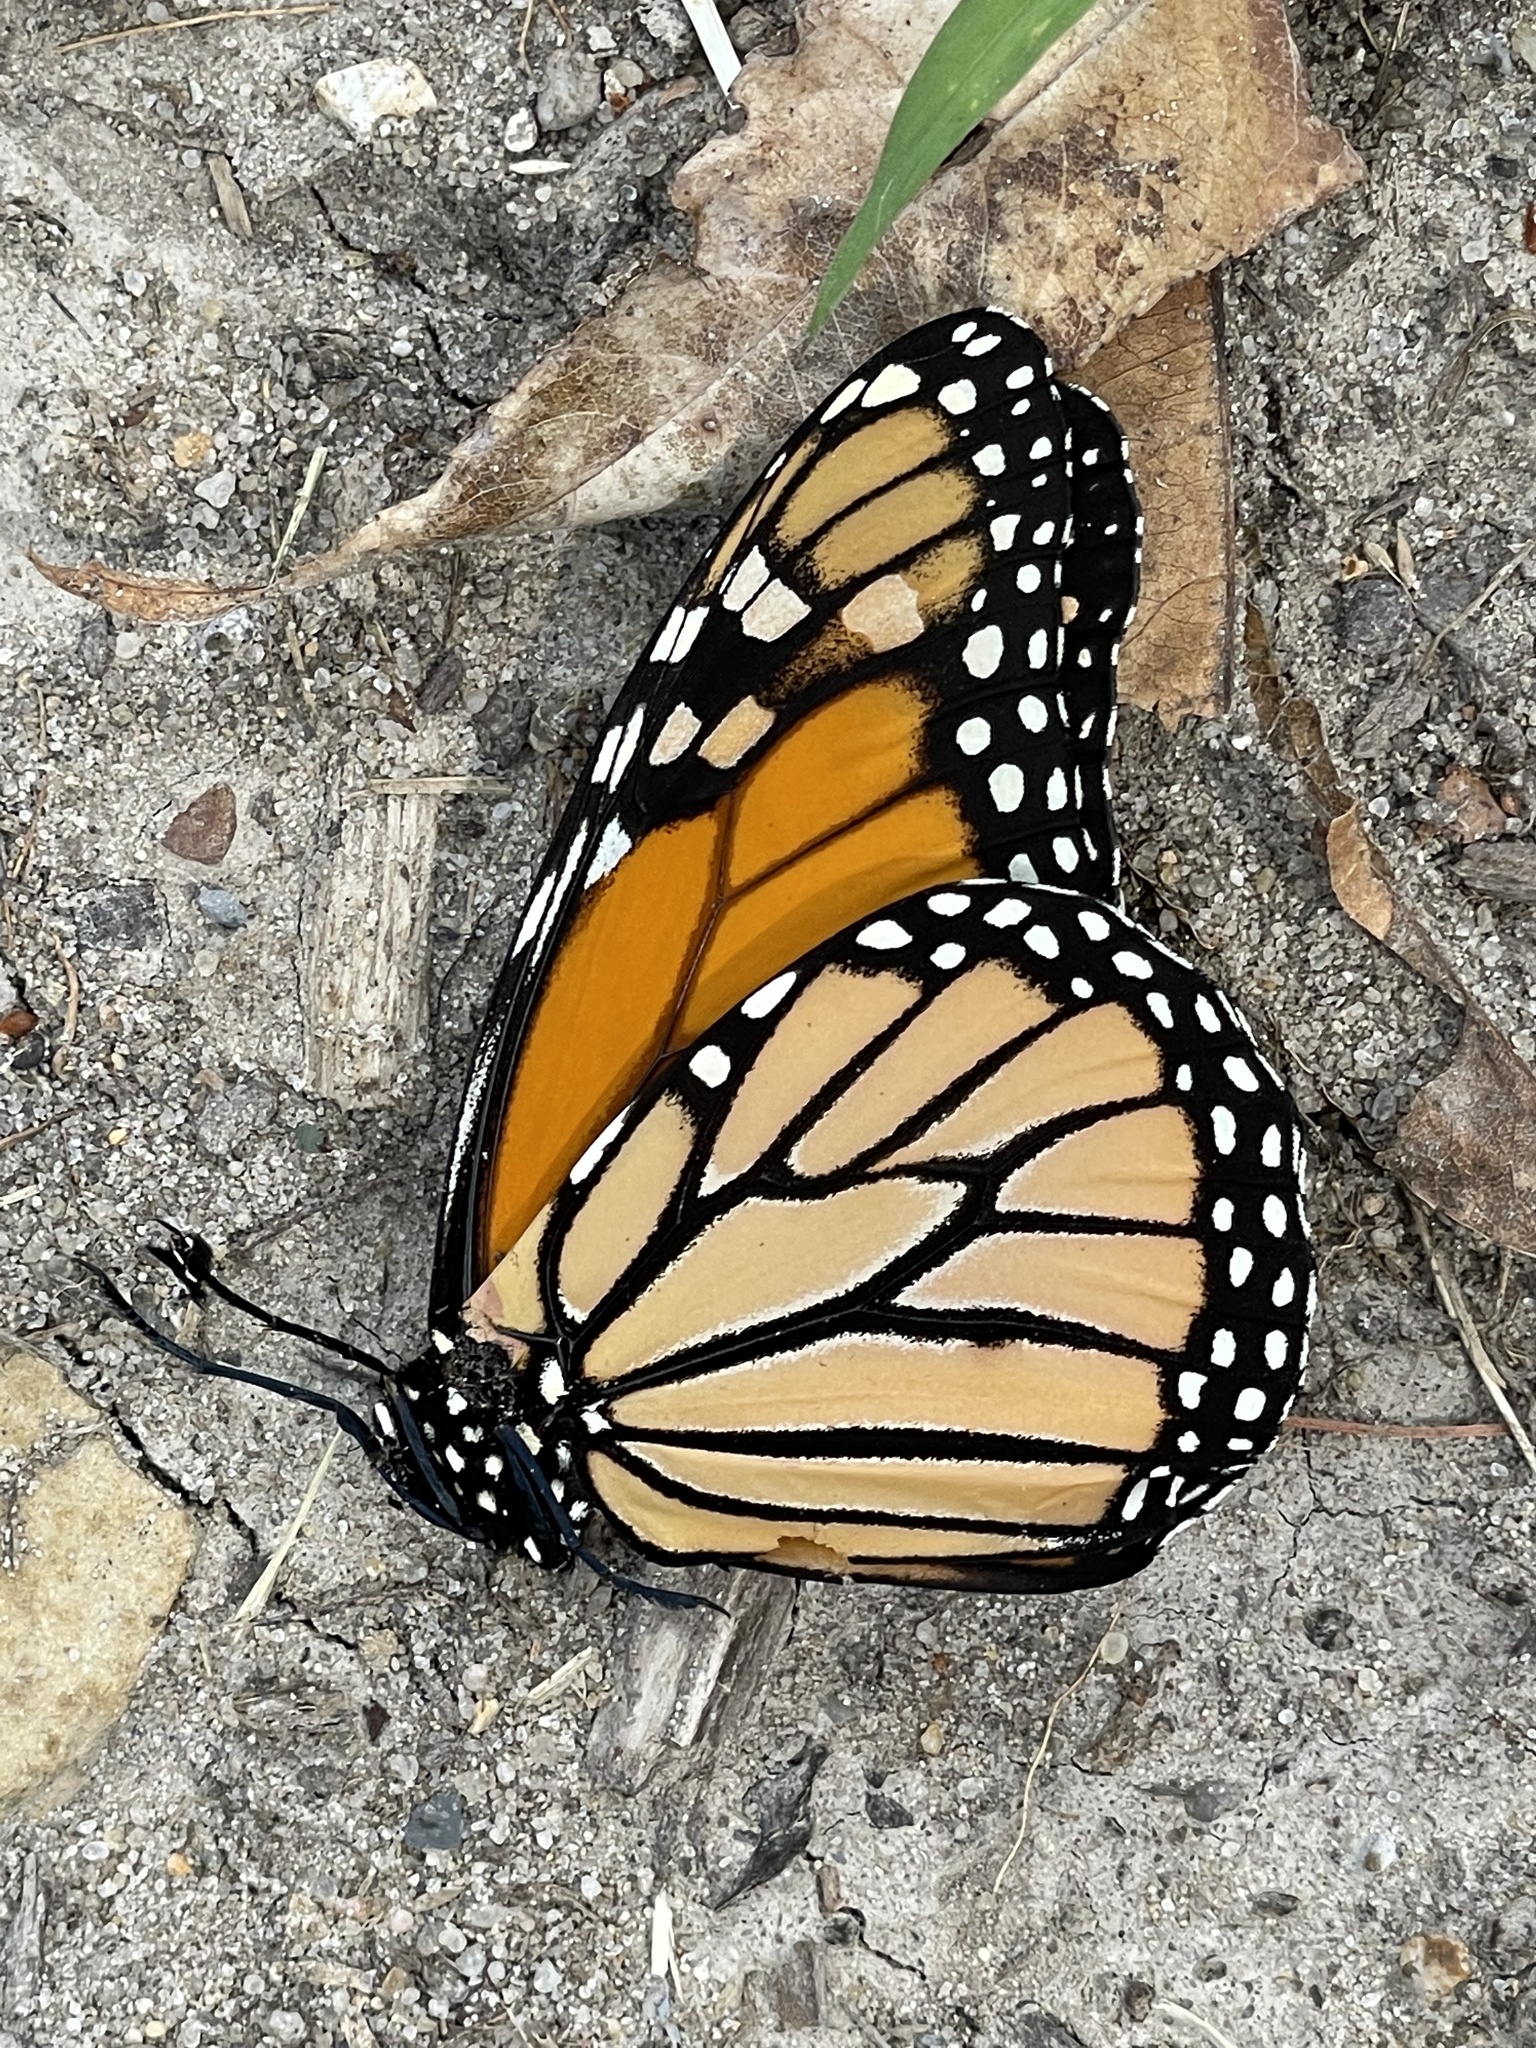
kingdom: Animalia
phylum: Arthropoda
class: Insecta
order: Lepidoptera
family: Nymphalidae
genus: Danaus
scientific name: Danaus plexippus
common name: Monarch
